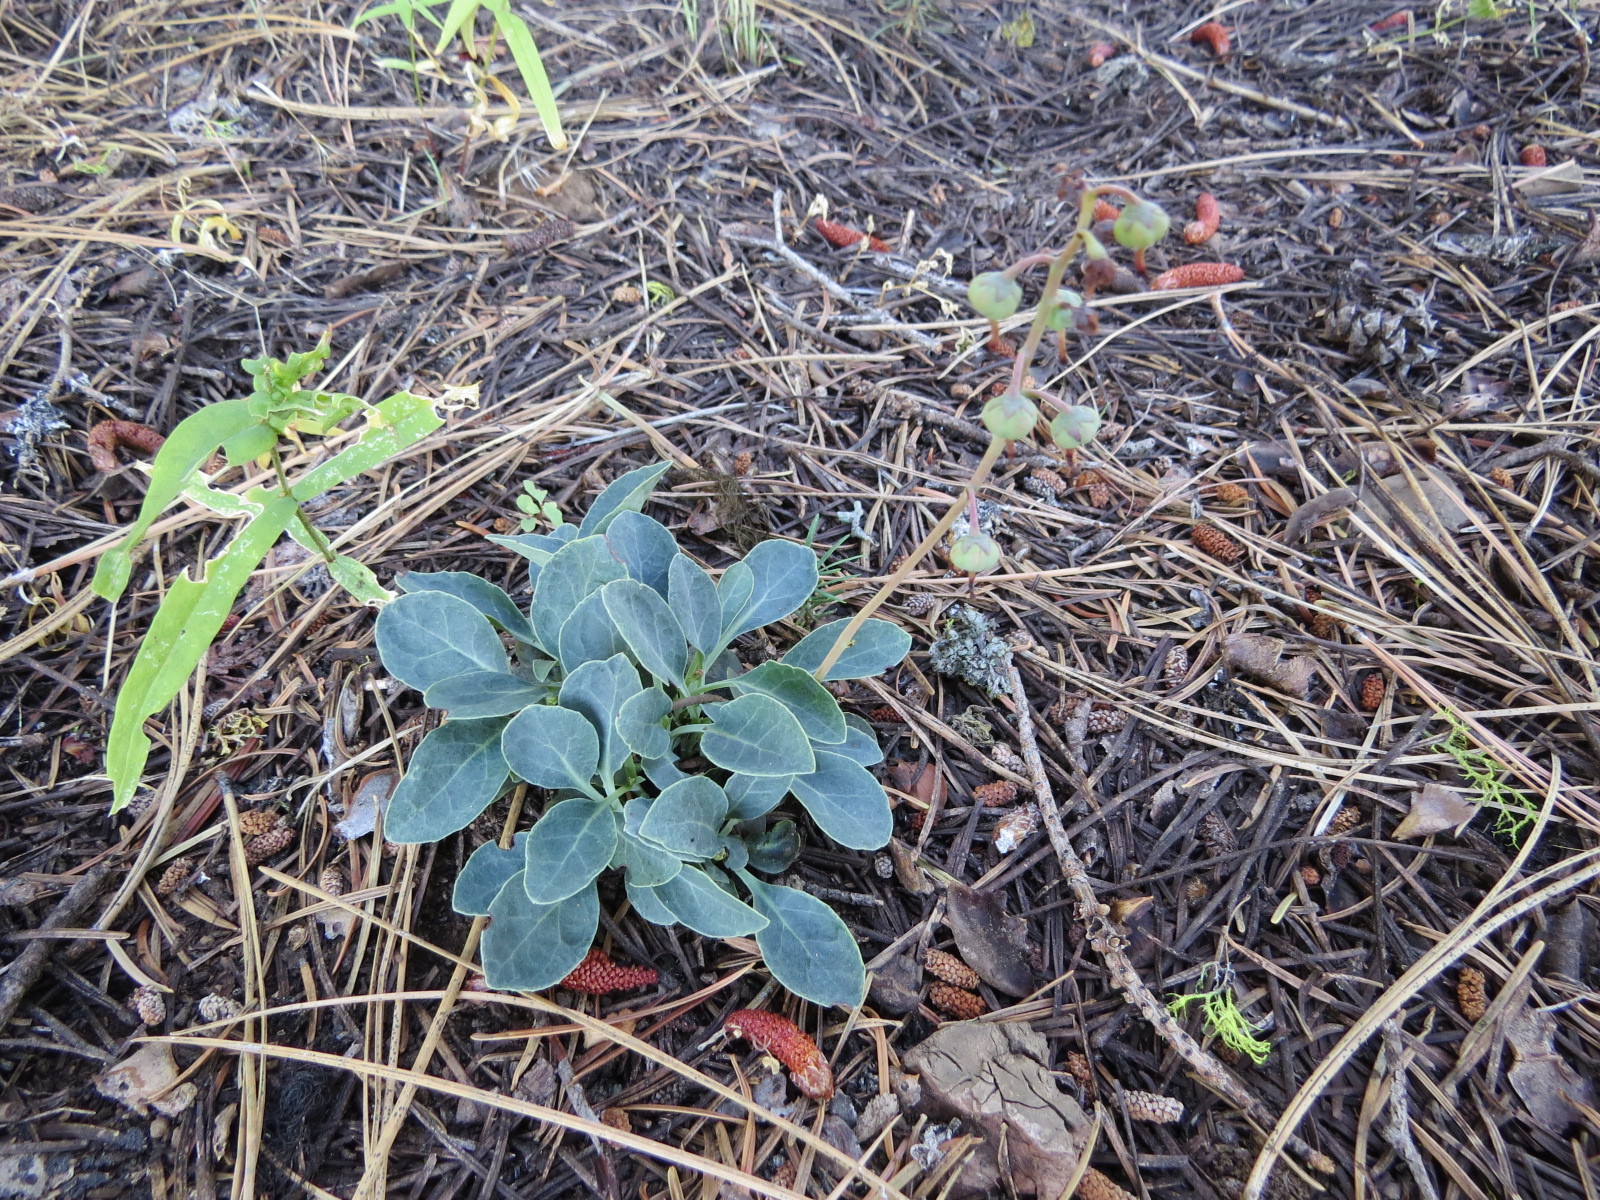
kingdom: Plantae
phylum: Tracheophyta
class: Magnoliopsida
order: Ericales
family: Ericaceae
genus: Pyrola
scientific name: Pyrola dentata
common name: Tooth-leaved wintergreen
